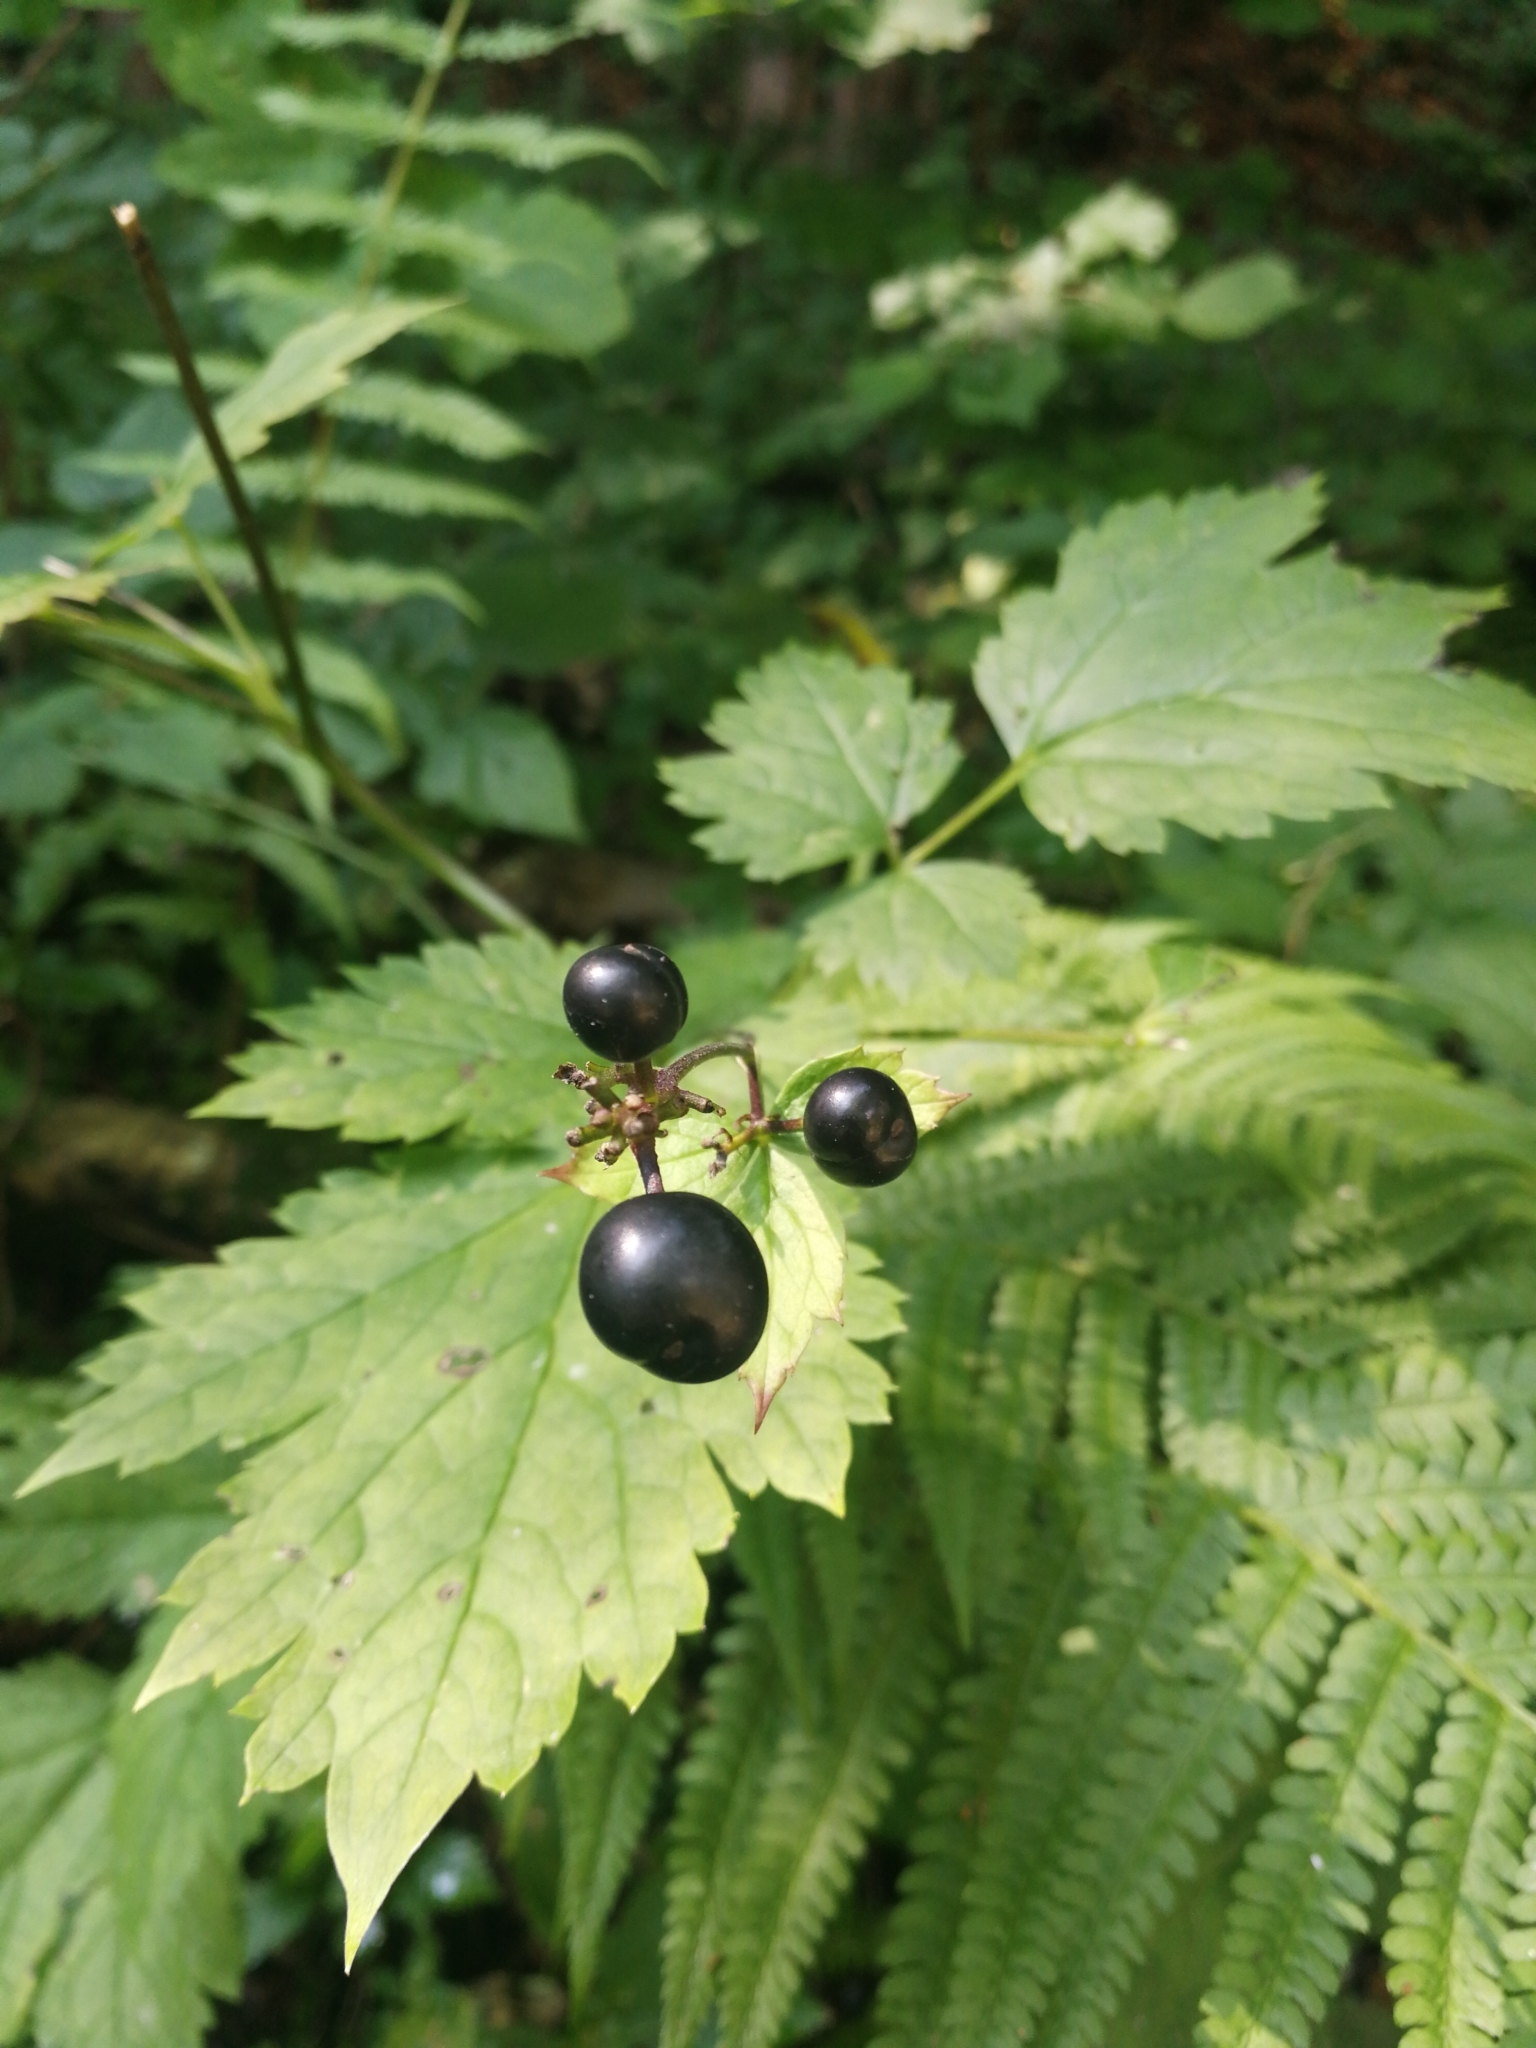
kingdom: Plantae
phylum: Tracheophyta
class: Magnoliopsida
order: Ranunculales
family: Ranunculaceae
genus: Actaea
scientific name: Actaea spicata
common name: Baneberry
